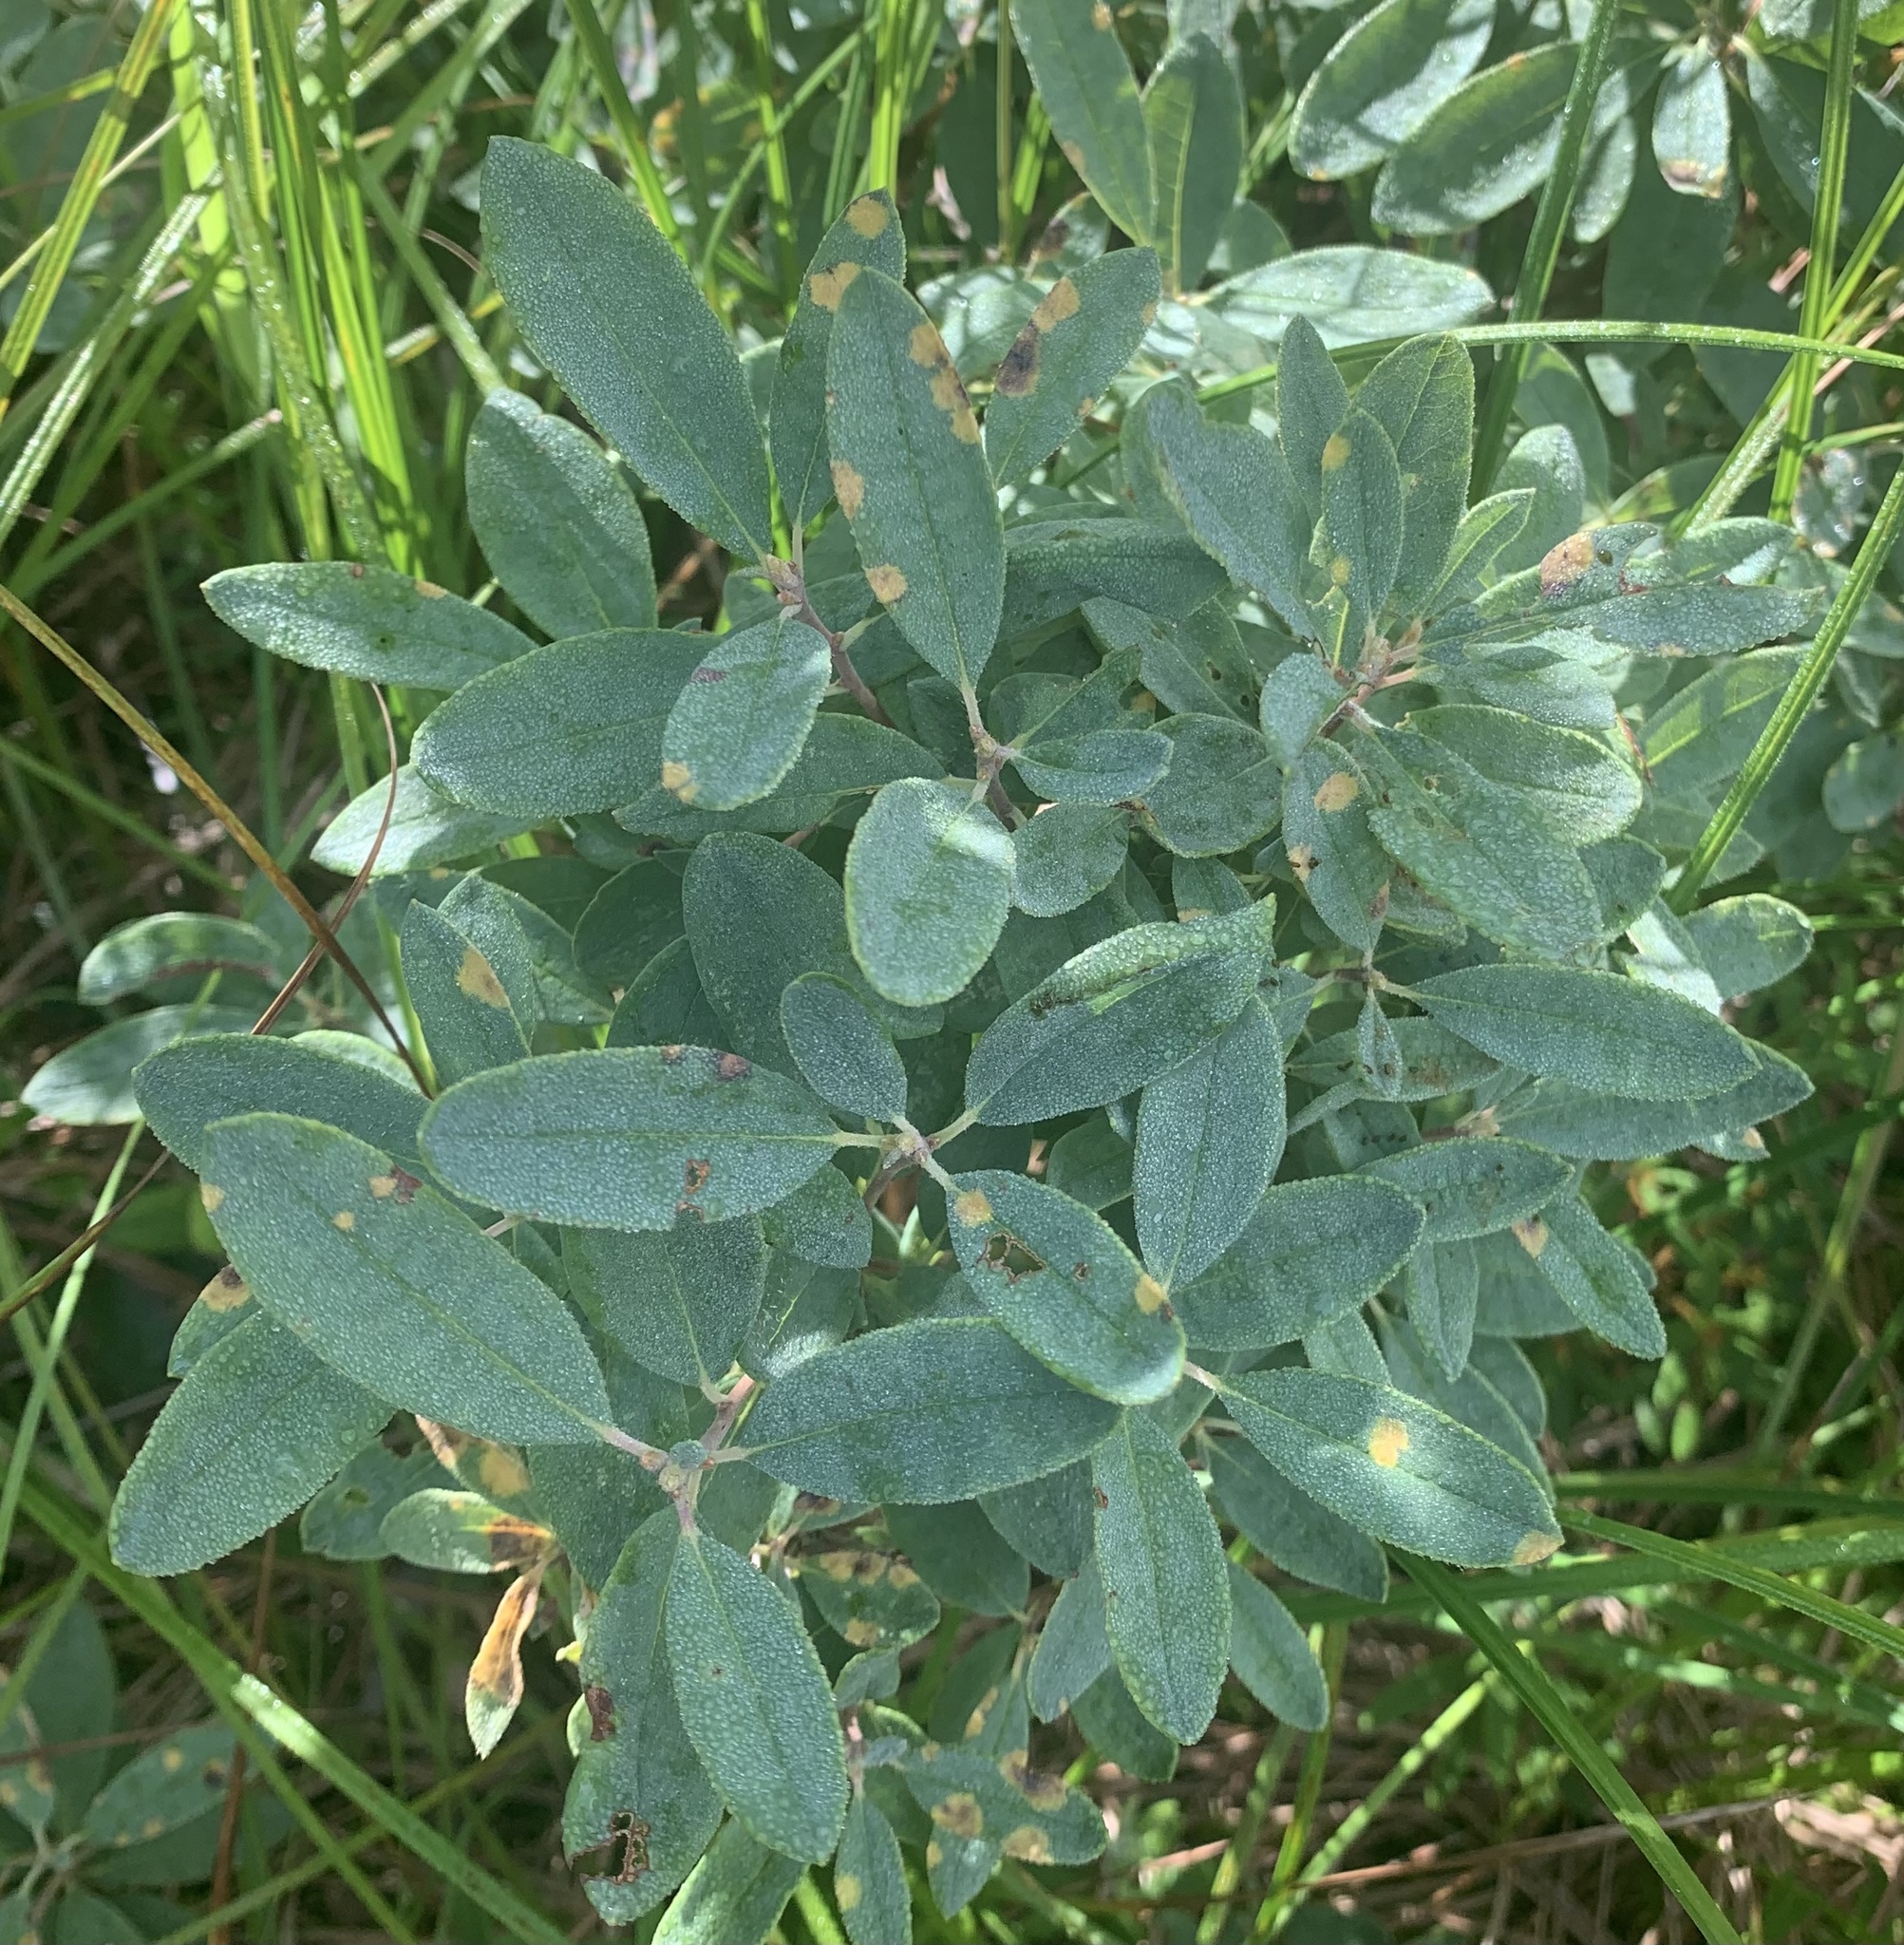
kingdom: Plantae
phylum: Tracheophyta
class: Magnoliopsida
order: Ericales
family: Ericaceae
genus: Rhododendron
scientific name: Rhododendron canadense
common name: Rhodora
